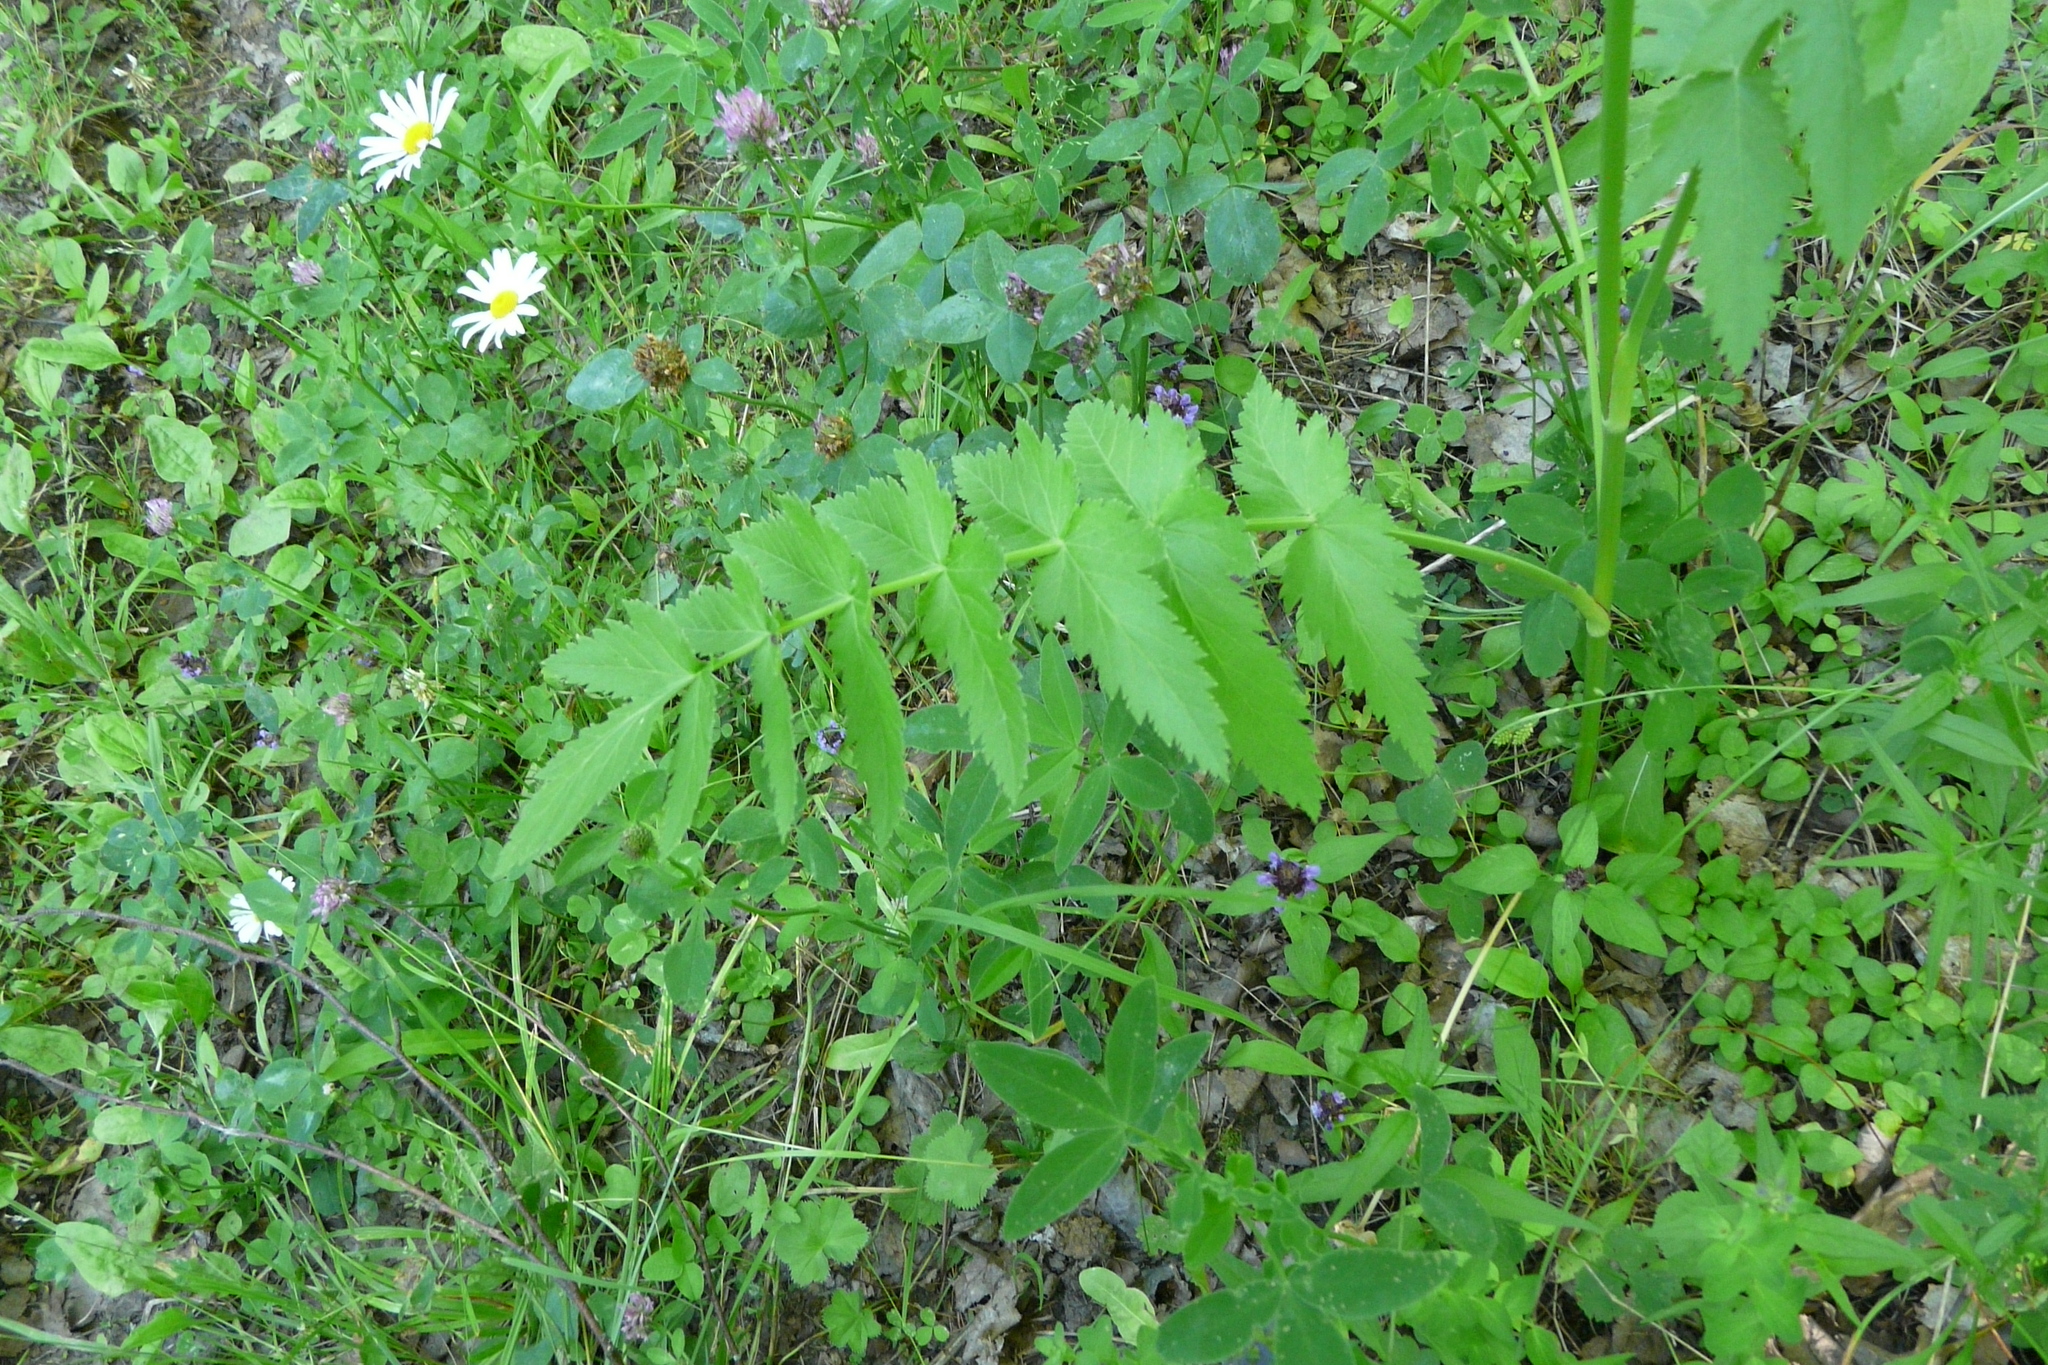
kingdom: Plantae
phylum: Tracheophyta
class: Magnoliopsida
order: Apiales
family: Apiaceae
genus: Pastinaca
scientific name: Pastinaca sativa
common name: Wild parsnip
